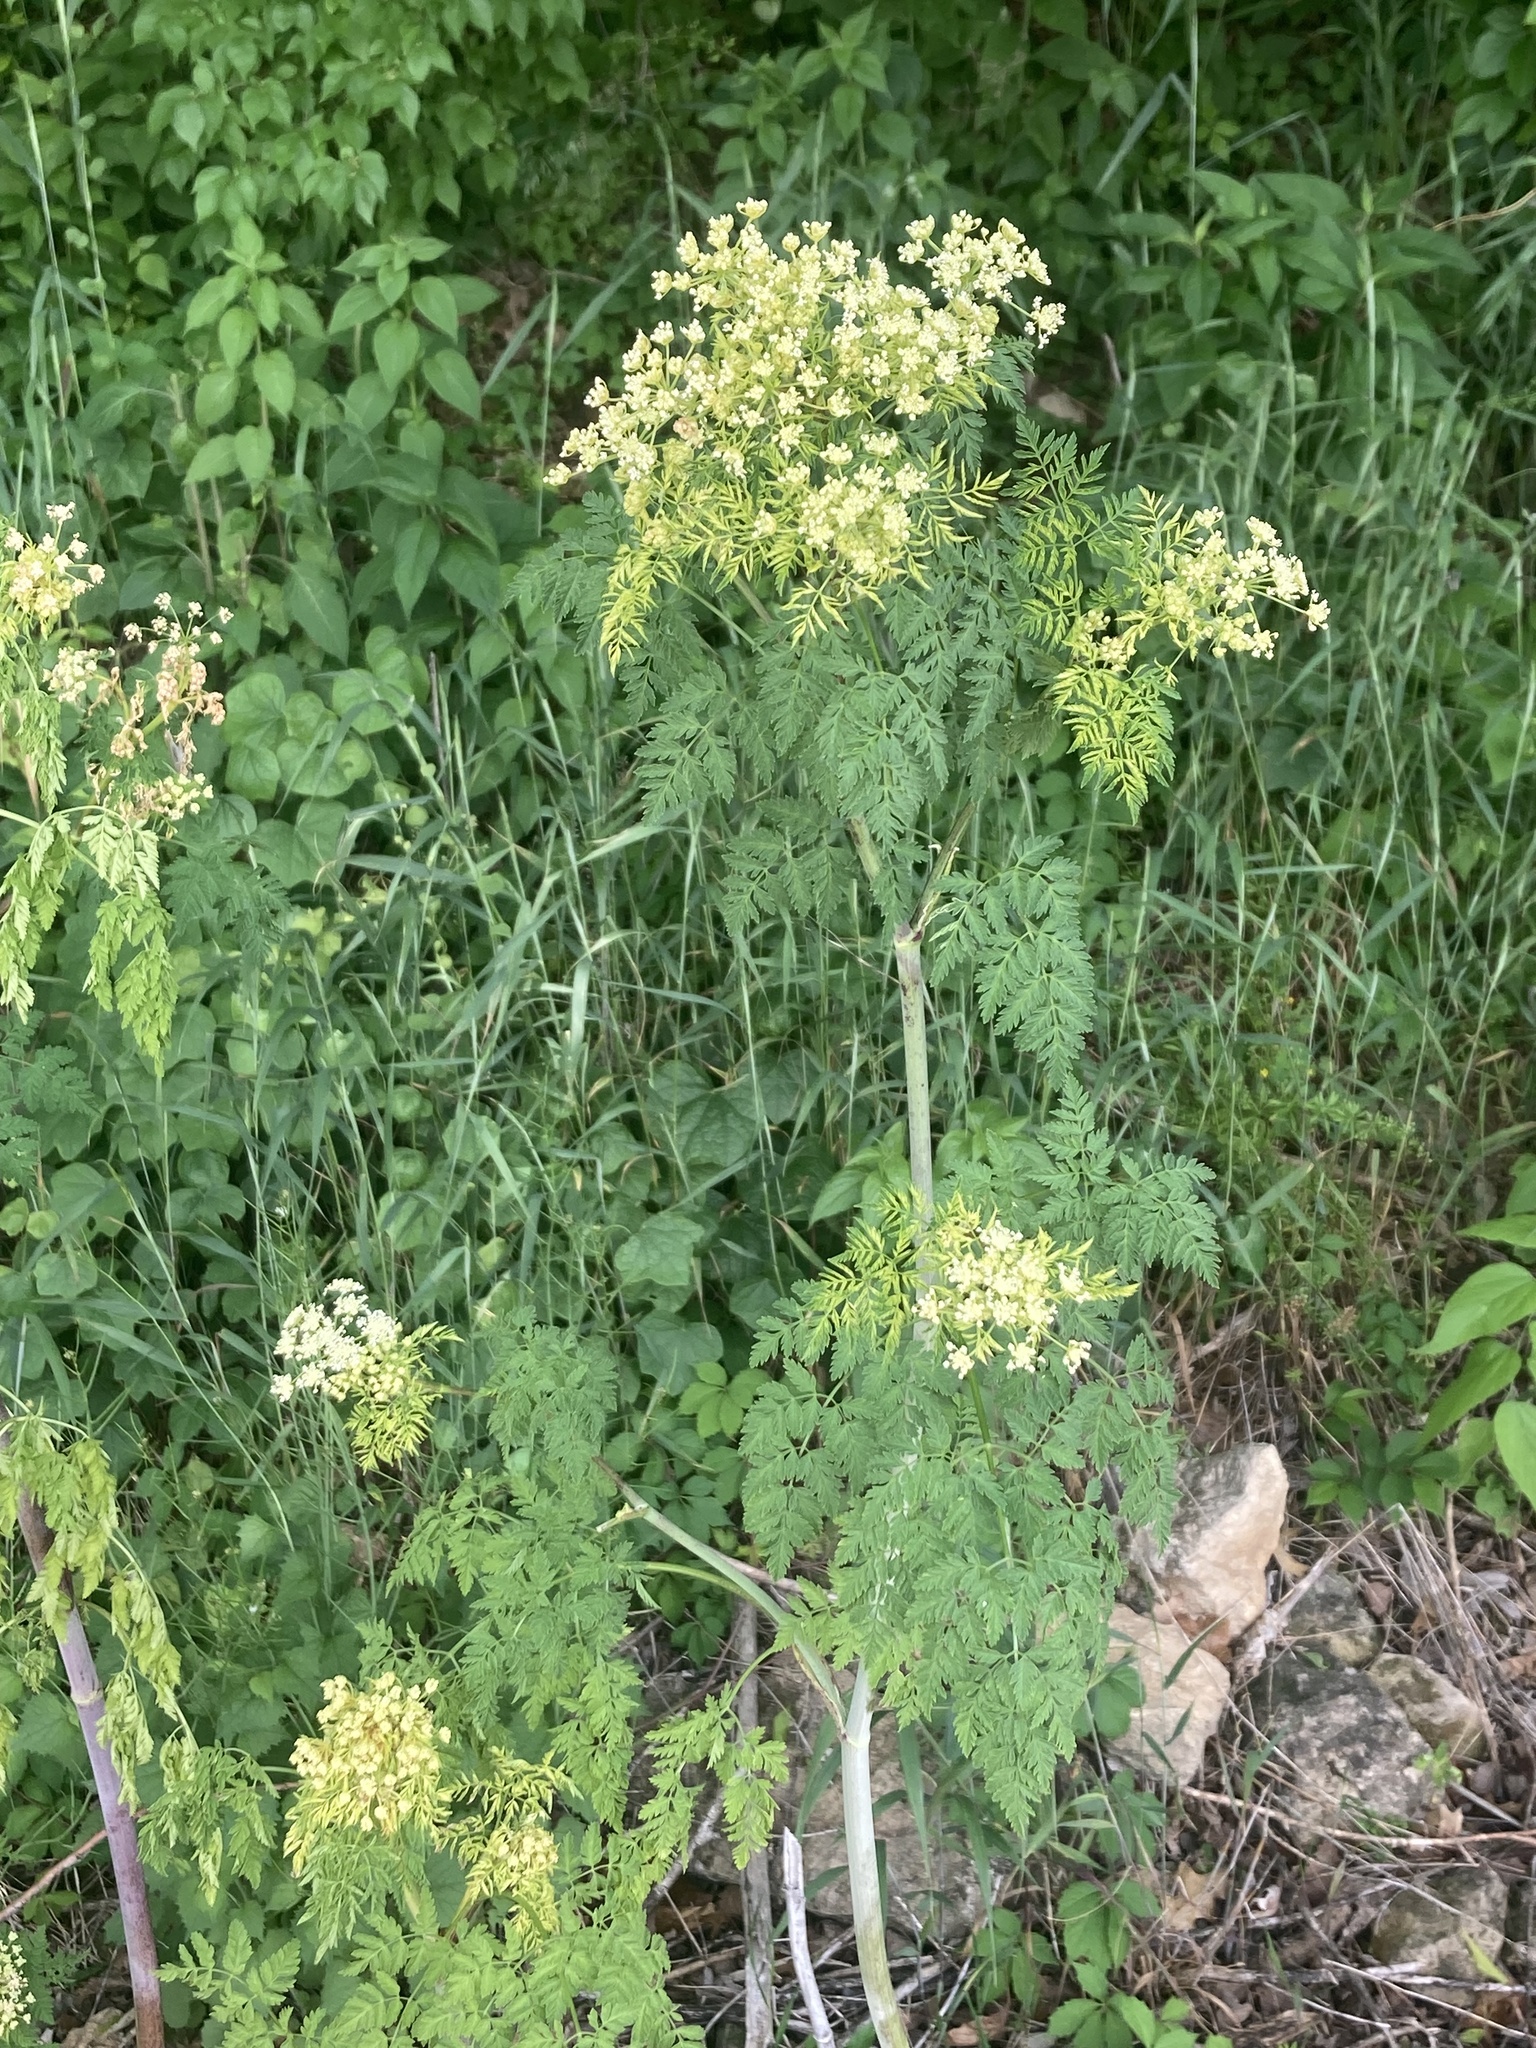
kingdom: Plantae
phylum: Tracheophyta
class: Magnoliopsida
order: Apiales
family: Apiaceae
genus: Conium
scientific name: Conium maculatum
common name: Hemlock
